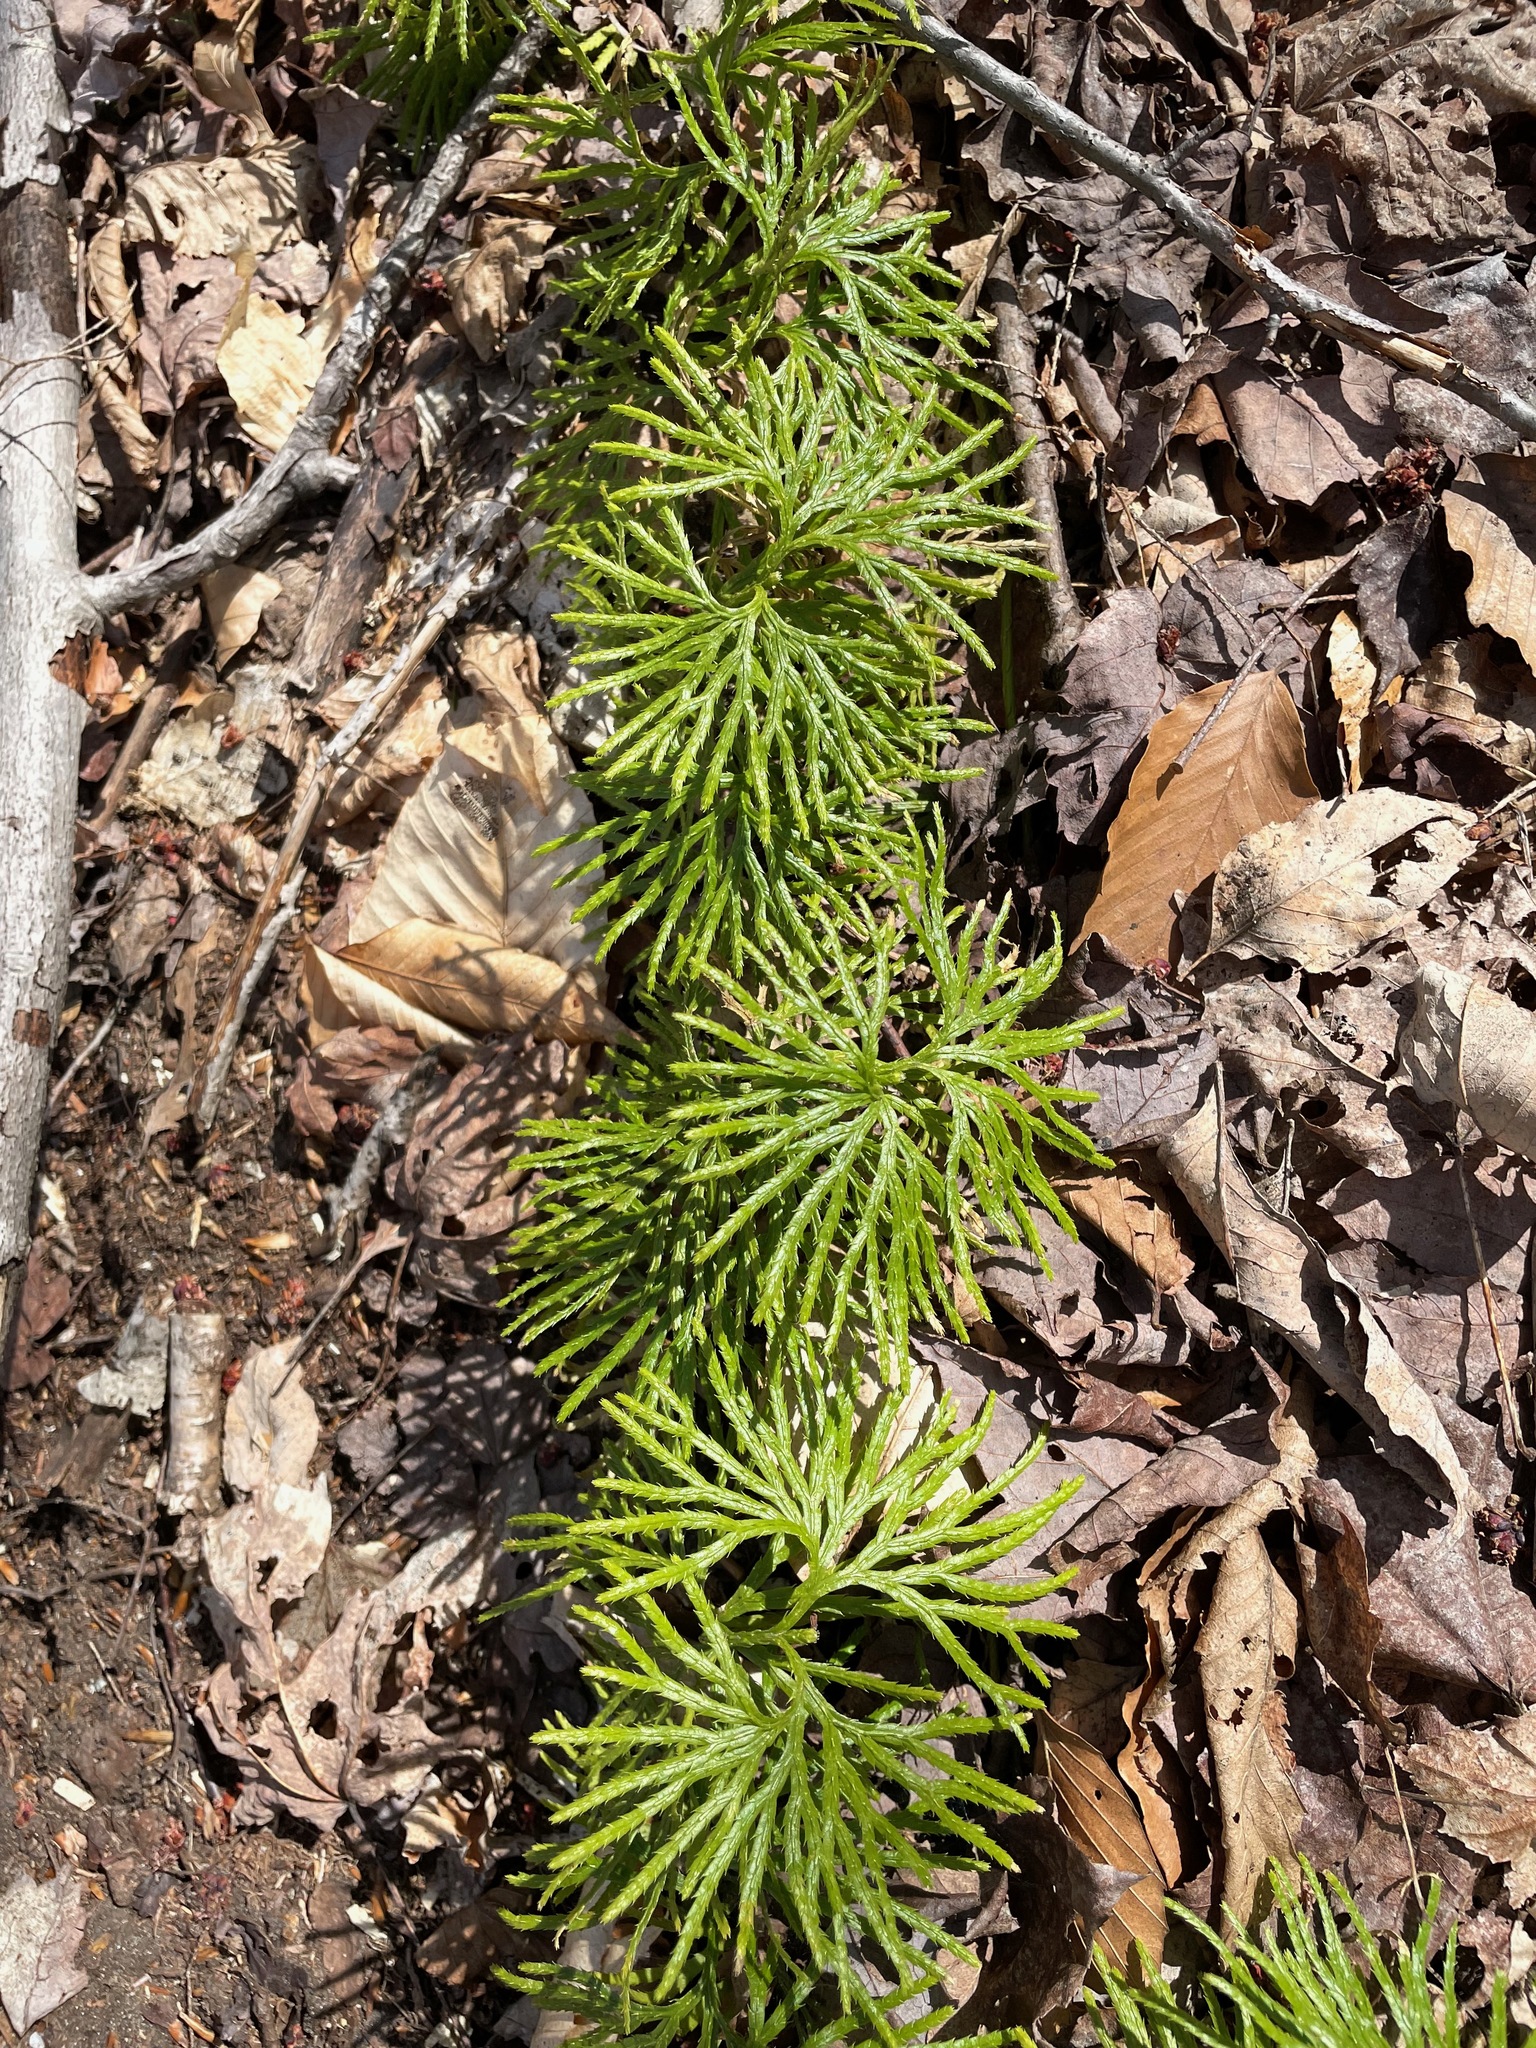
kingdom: Plantae
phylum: Tracheophyta
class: Lycopodiopsida
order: Lycopodiales
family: Lycopodiaceae
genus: Diphasiastrum
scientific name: Diphasiastrum digitatum
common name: Southern running-pine
